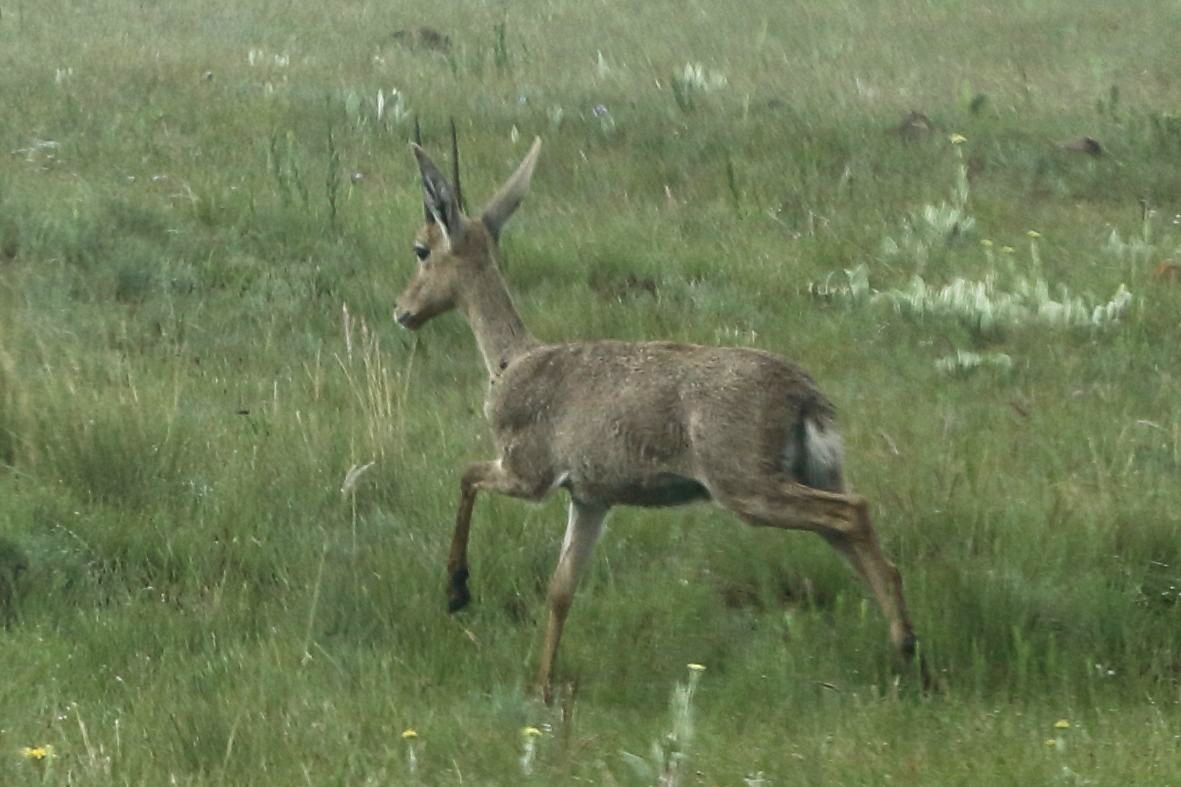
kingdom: Animalia
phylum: Chordata
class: Mammalia
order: Artiodactyla
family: Bovidae
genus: Pelea
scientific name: Pelea capreolus
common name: Common rhebok
